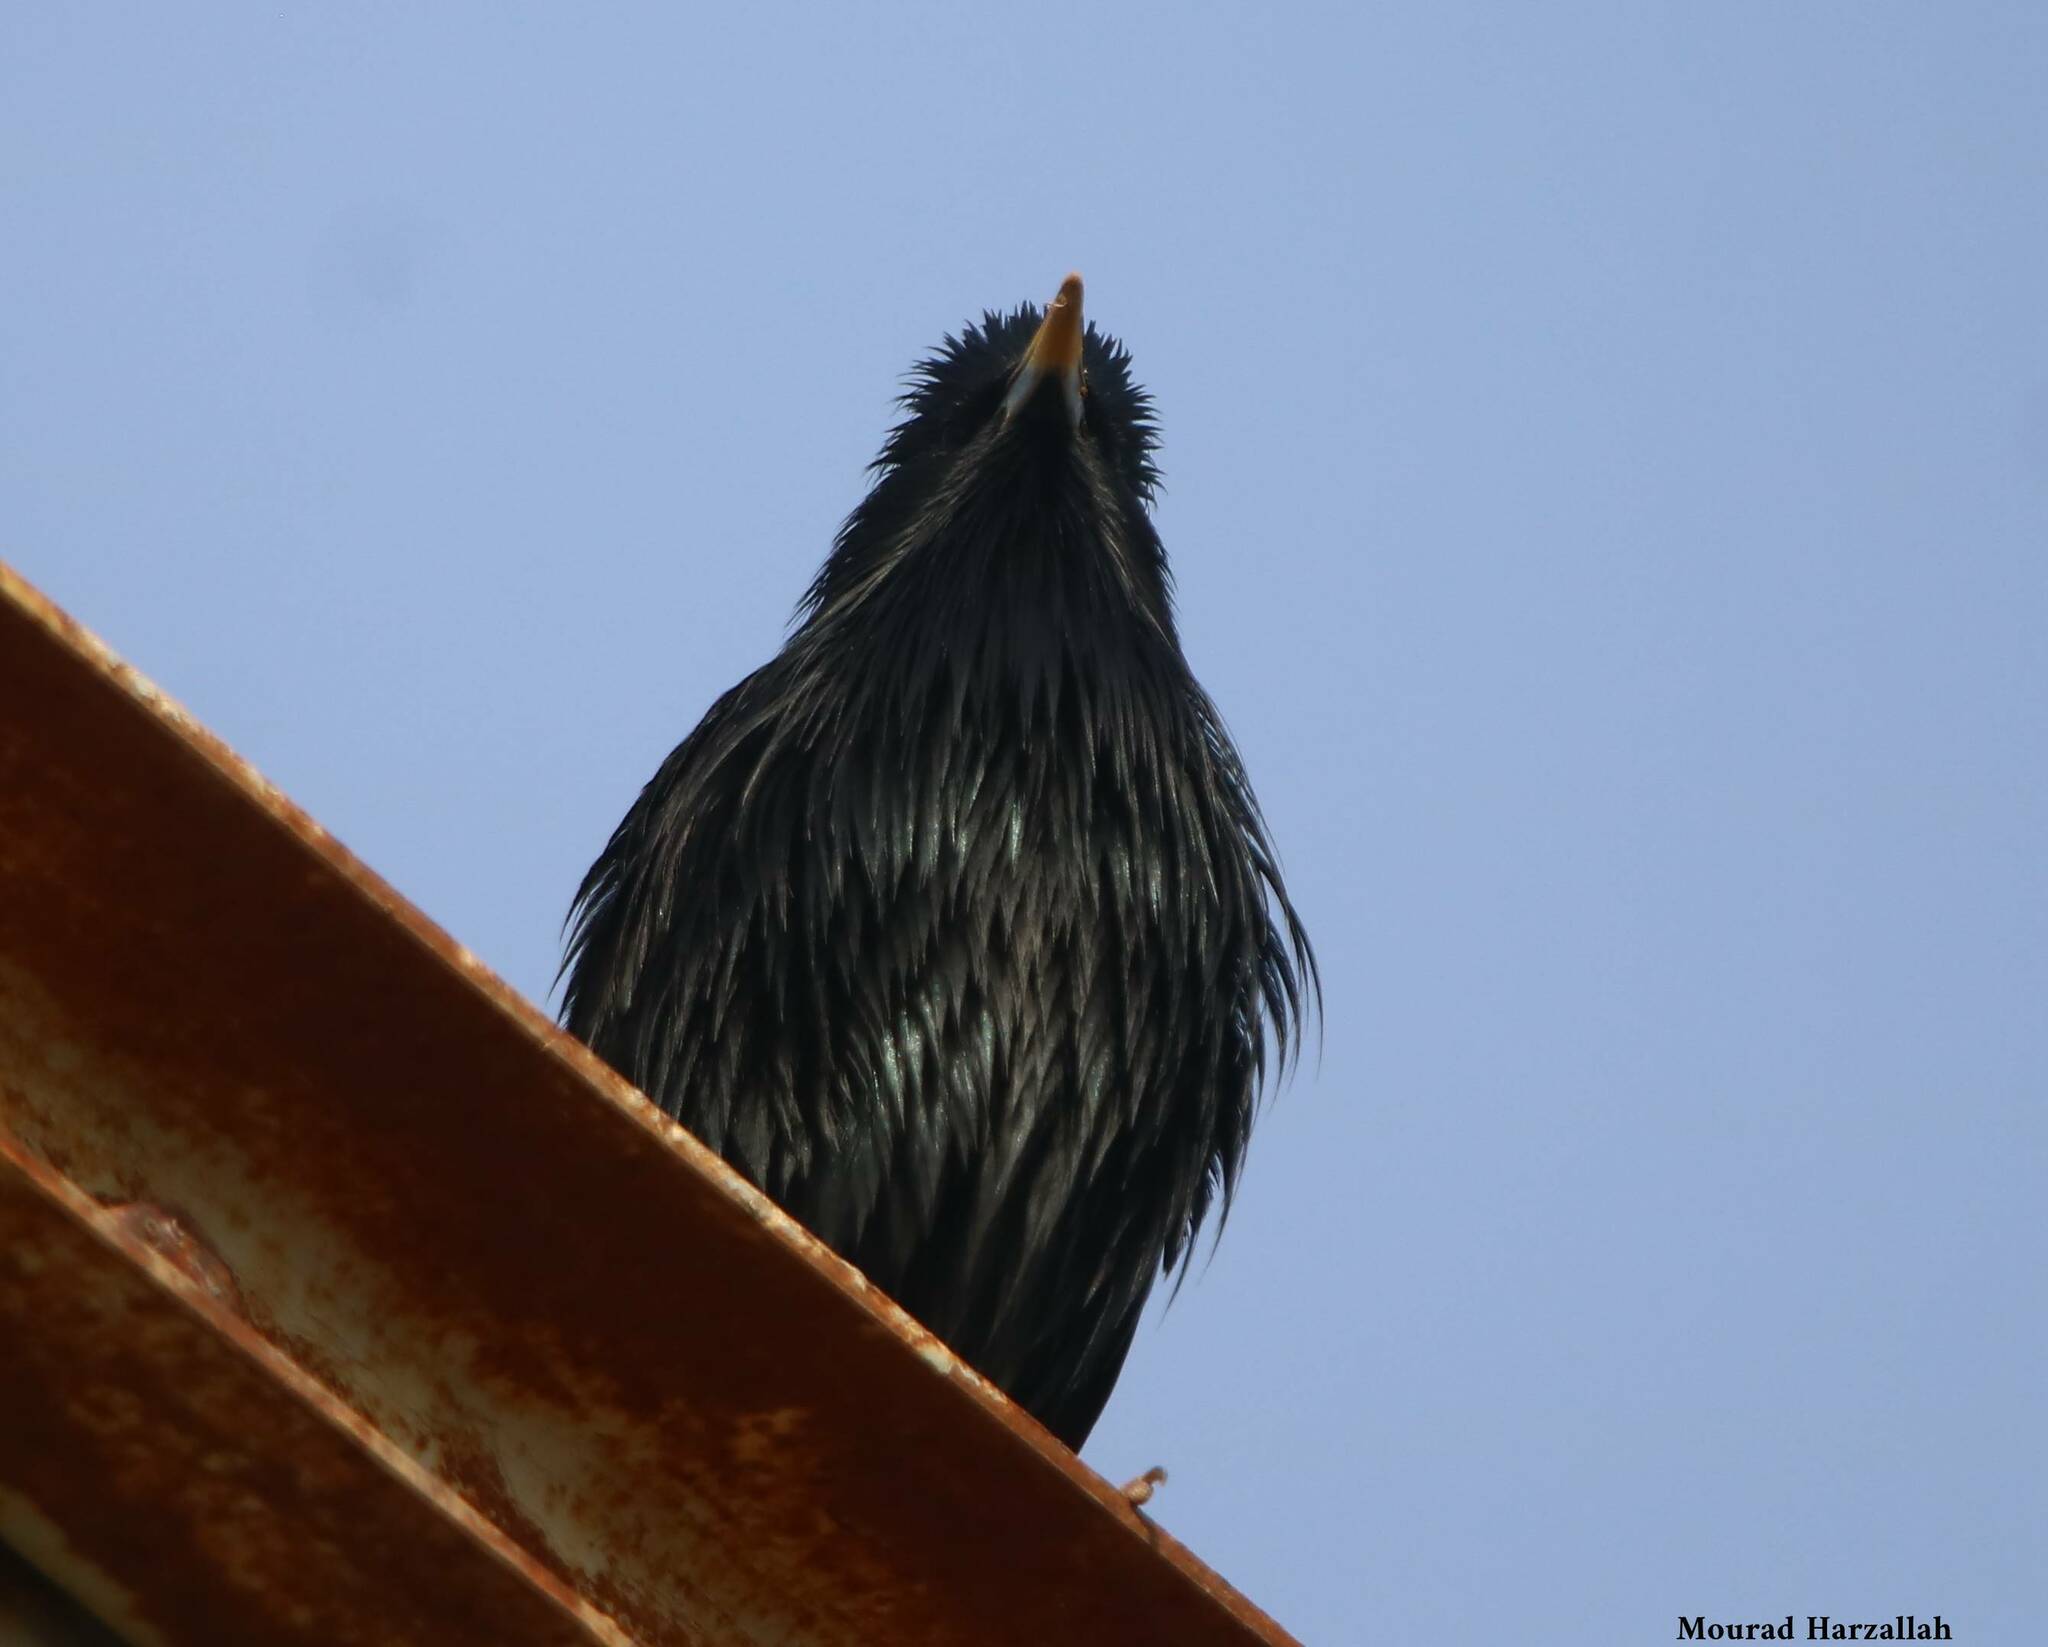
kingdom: Animalia
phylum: Chordata
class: Aves
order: Passeriformes
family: Sturnidae
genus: Sturnus
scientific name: Sturnus unicolor
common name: Spotless starling
